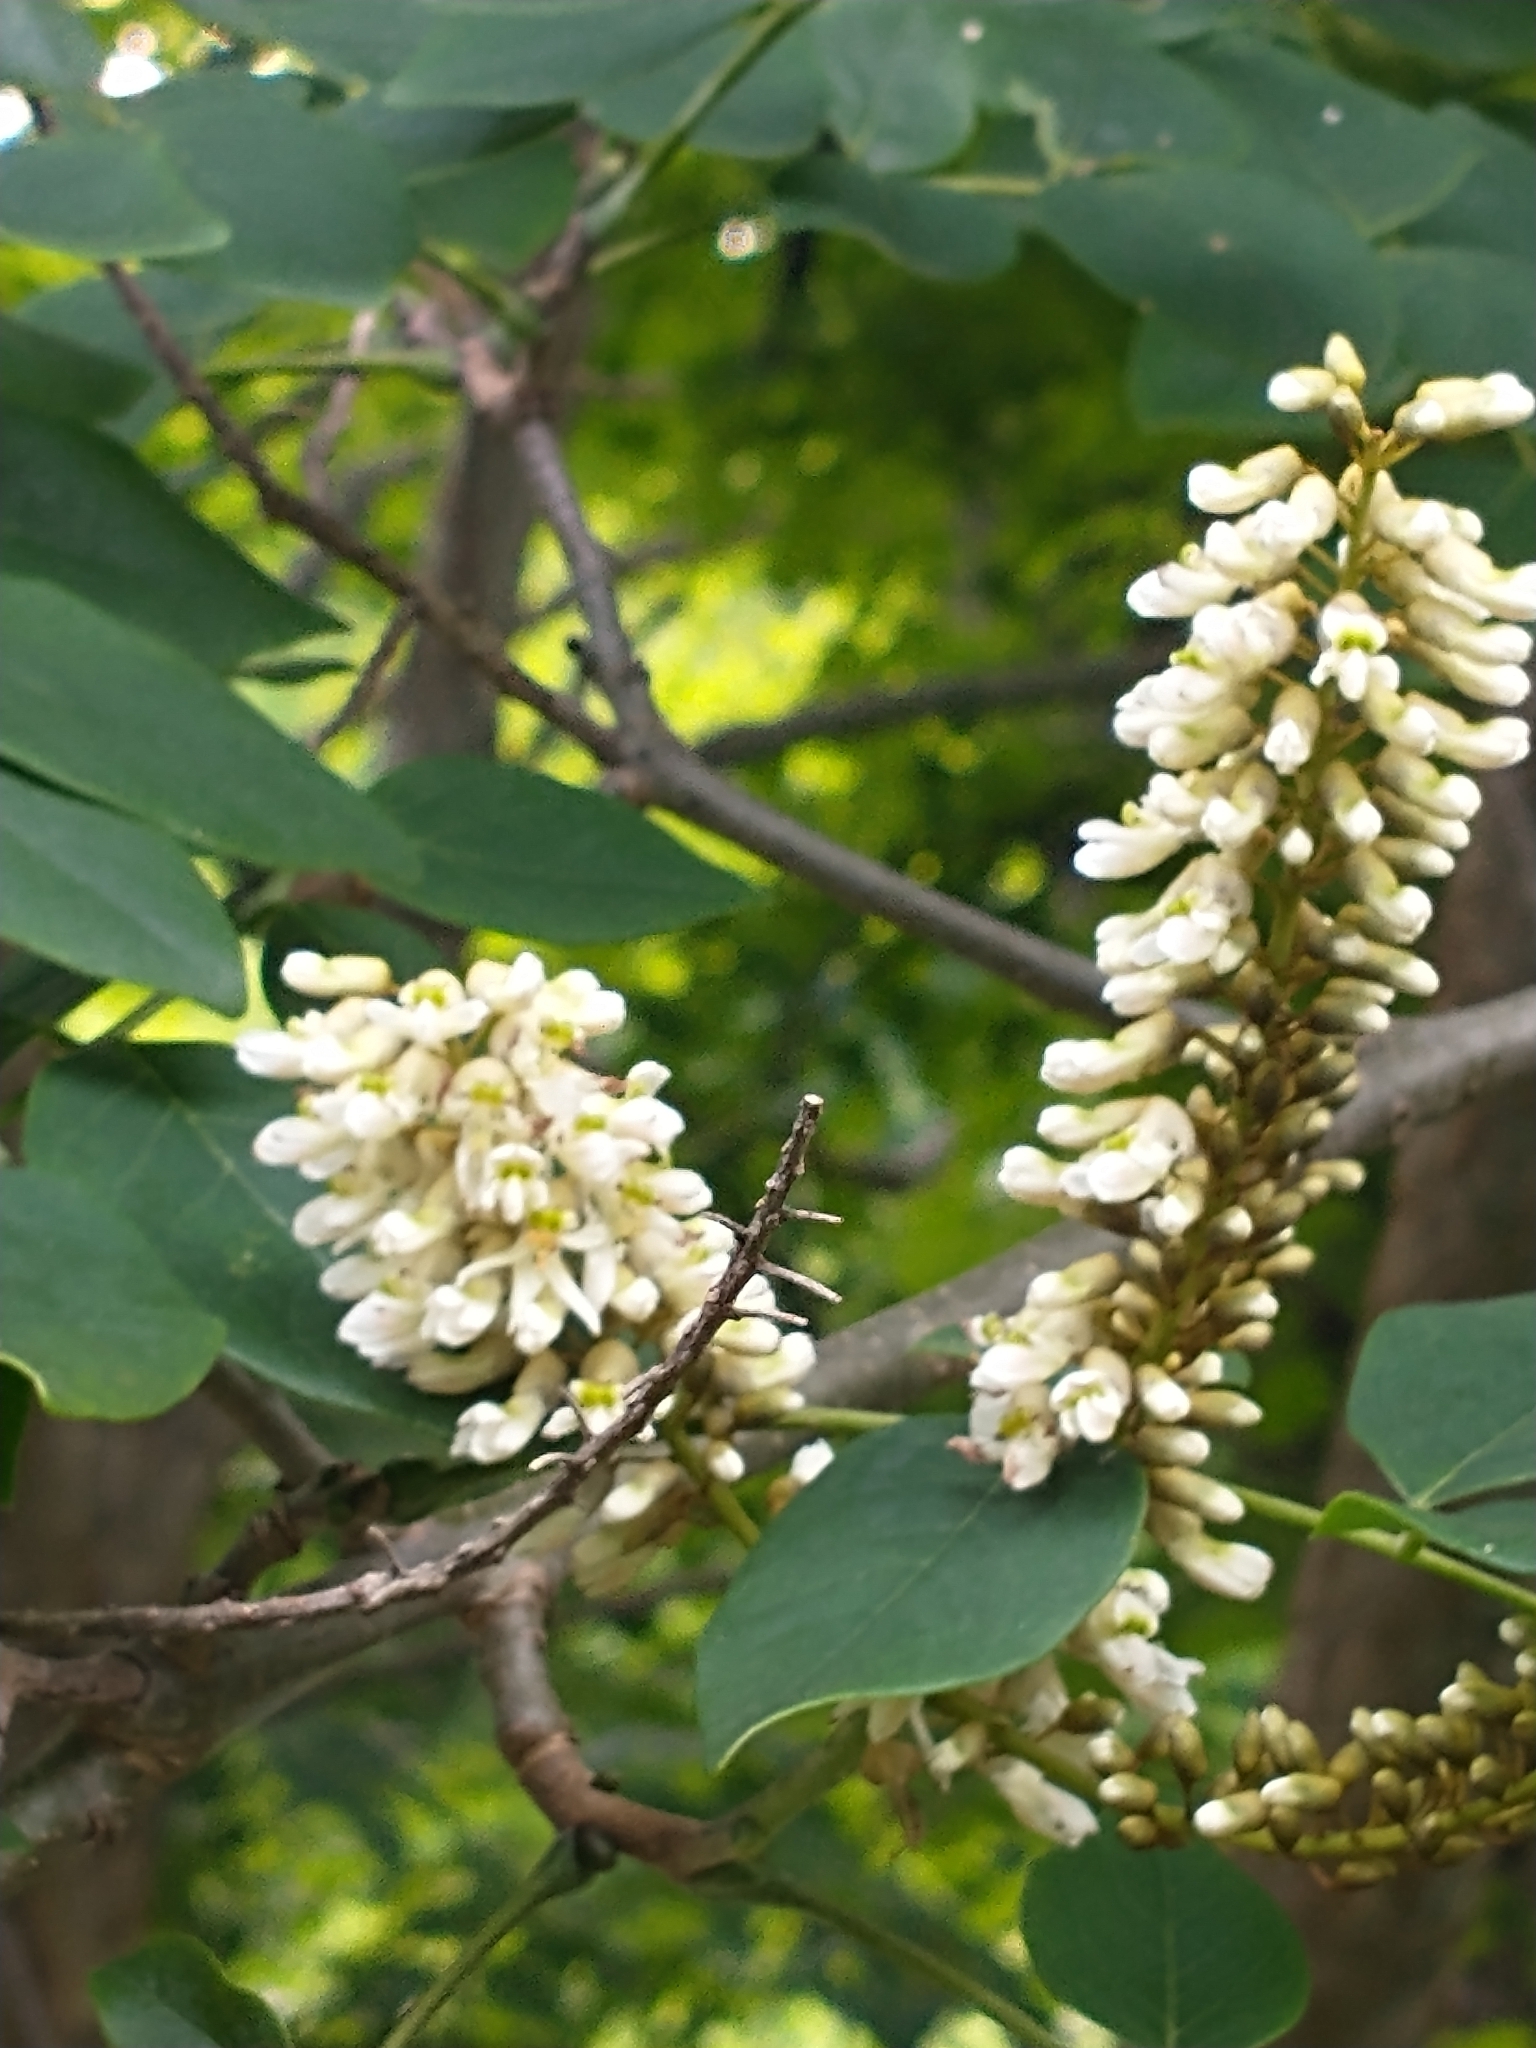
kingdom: Plantae
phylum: Tracheophyta
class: Magnoliopsida
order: Fabales
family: Fabaceae
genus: Maackia
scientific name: Maackia amurensis
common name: Amur maackia
